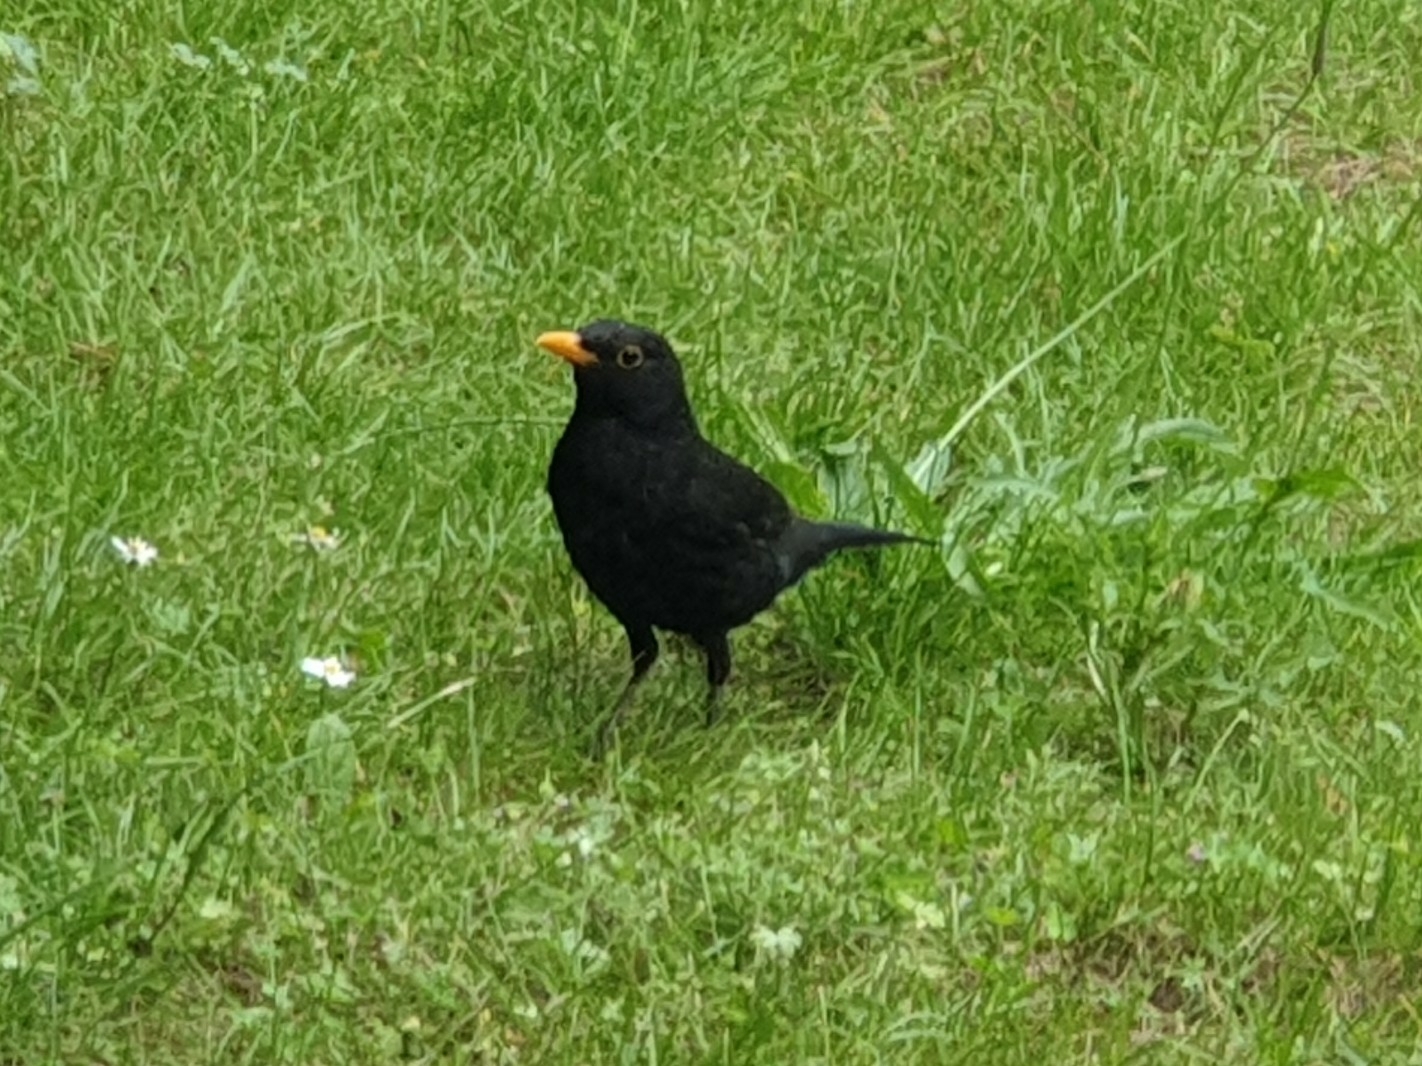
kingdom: Animalia
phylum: Chordata
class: Aves
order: Passeriformes
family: Turdidae
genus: Turdus
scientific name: Turdus merula
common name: Common blackbird
